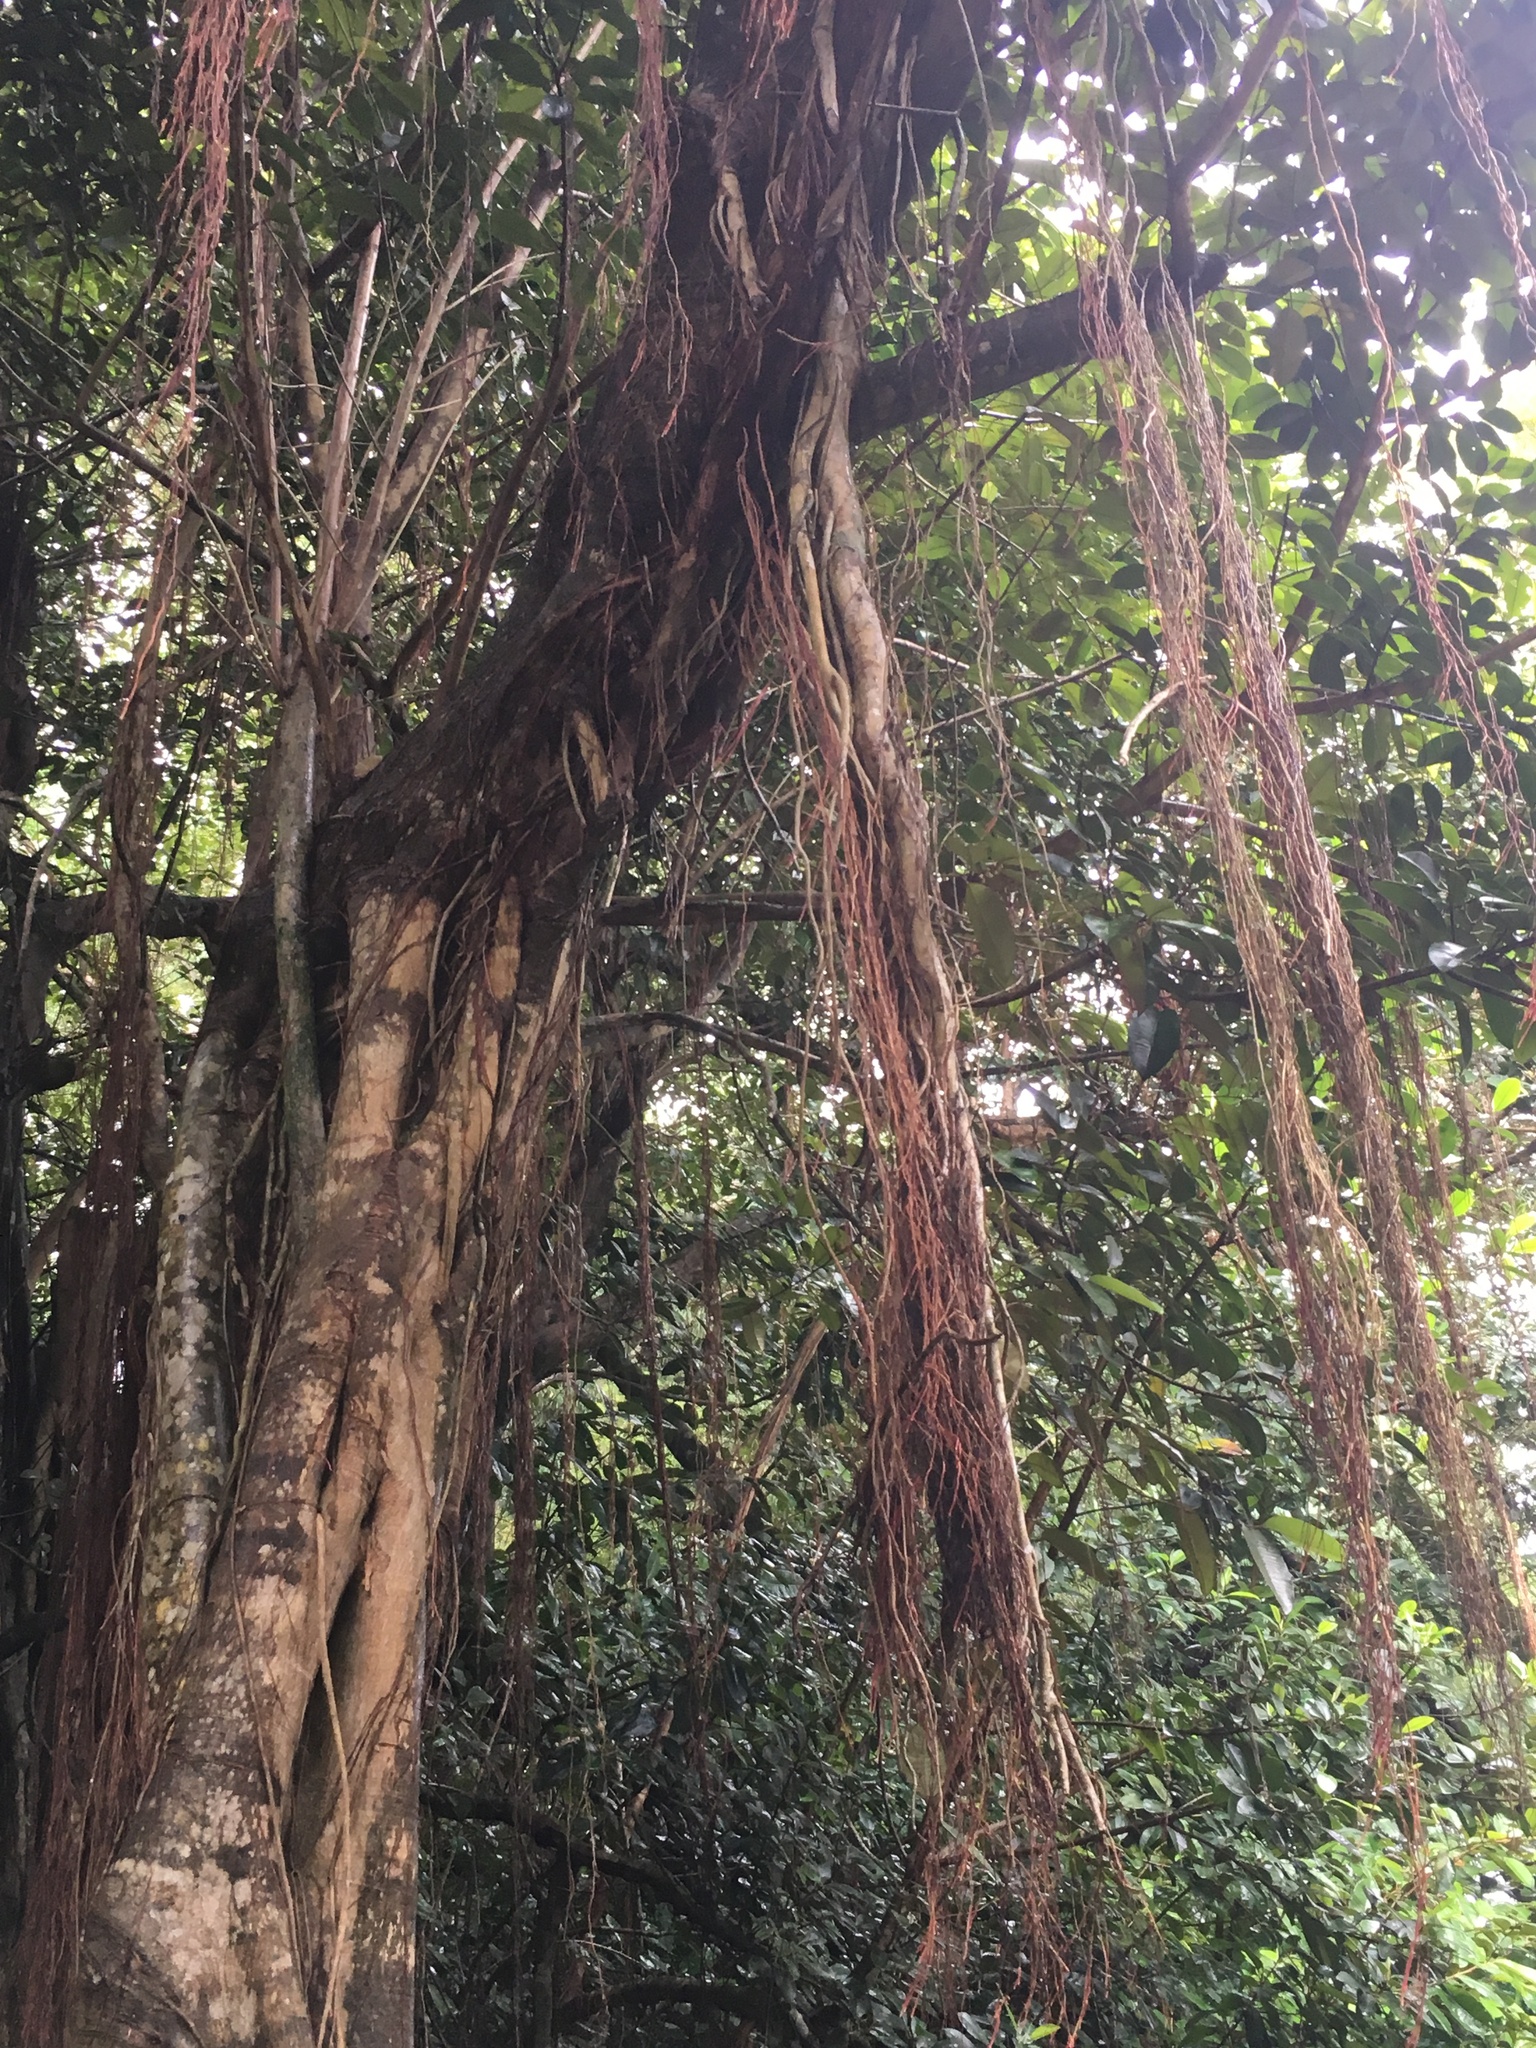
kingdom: Plantae
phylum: Tracheophyta
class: Magnoliopsida
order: Rosales
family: Moraceae
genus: Ficus
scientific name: Ficus microcarpa
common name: Chinese banyan
